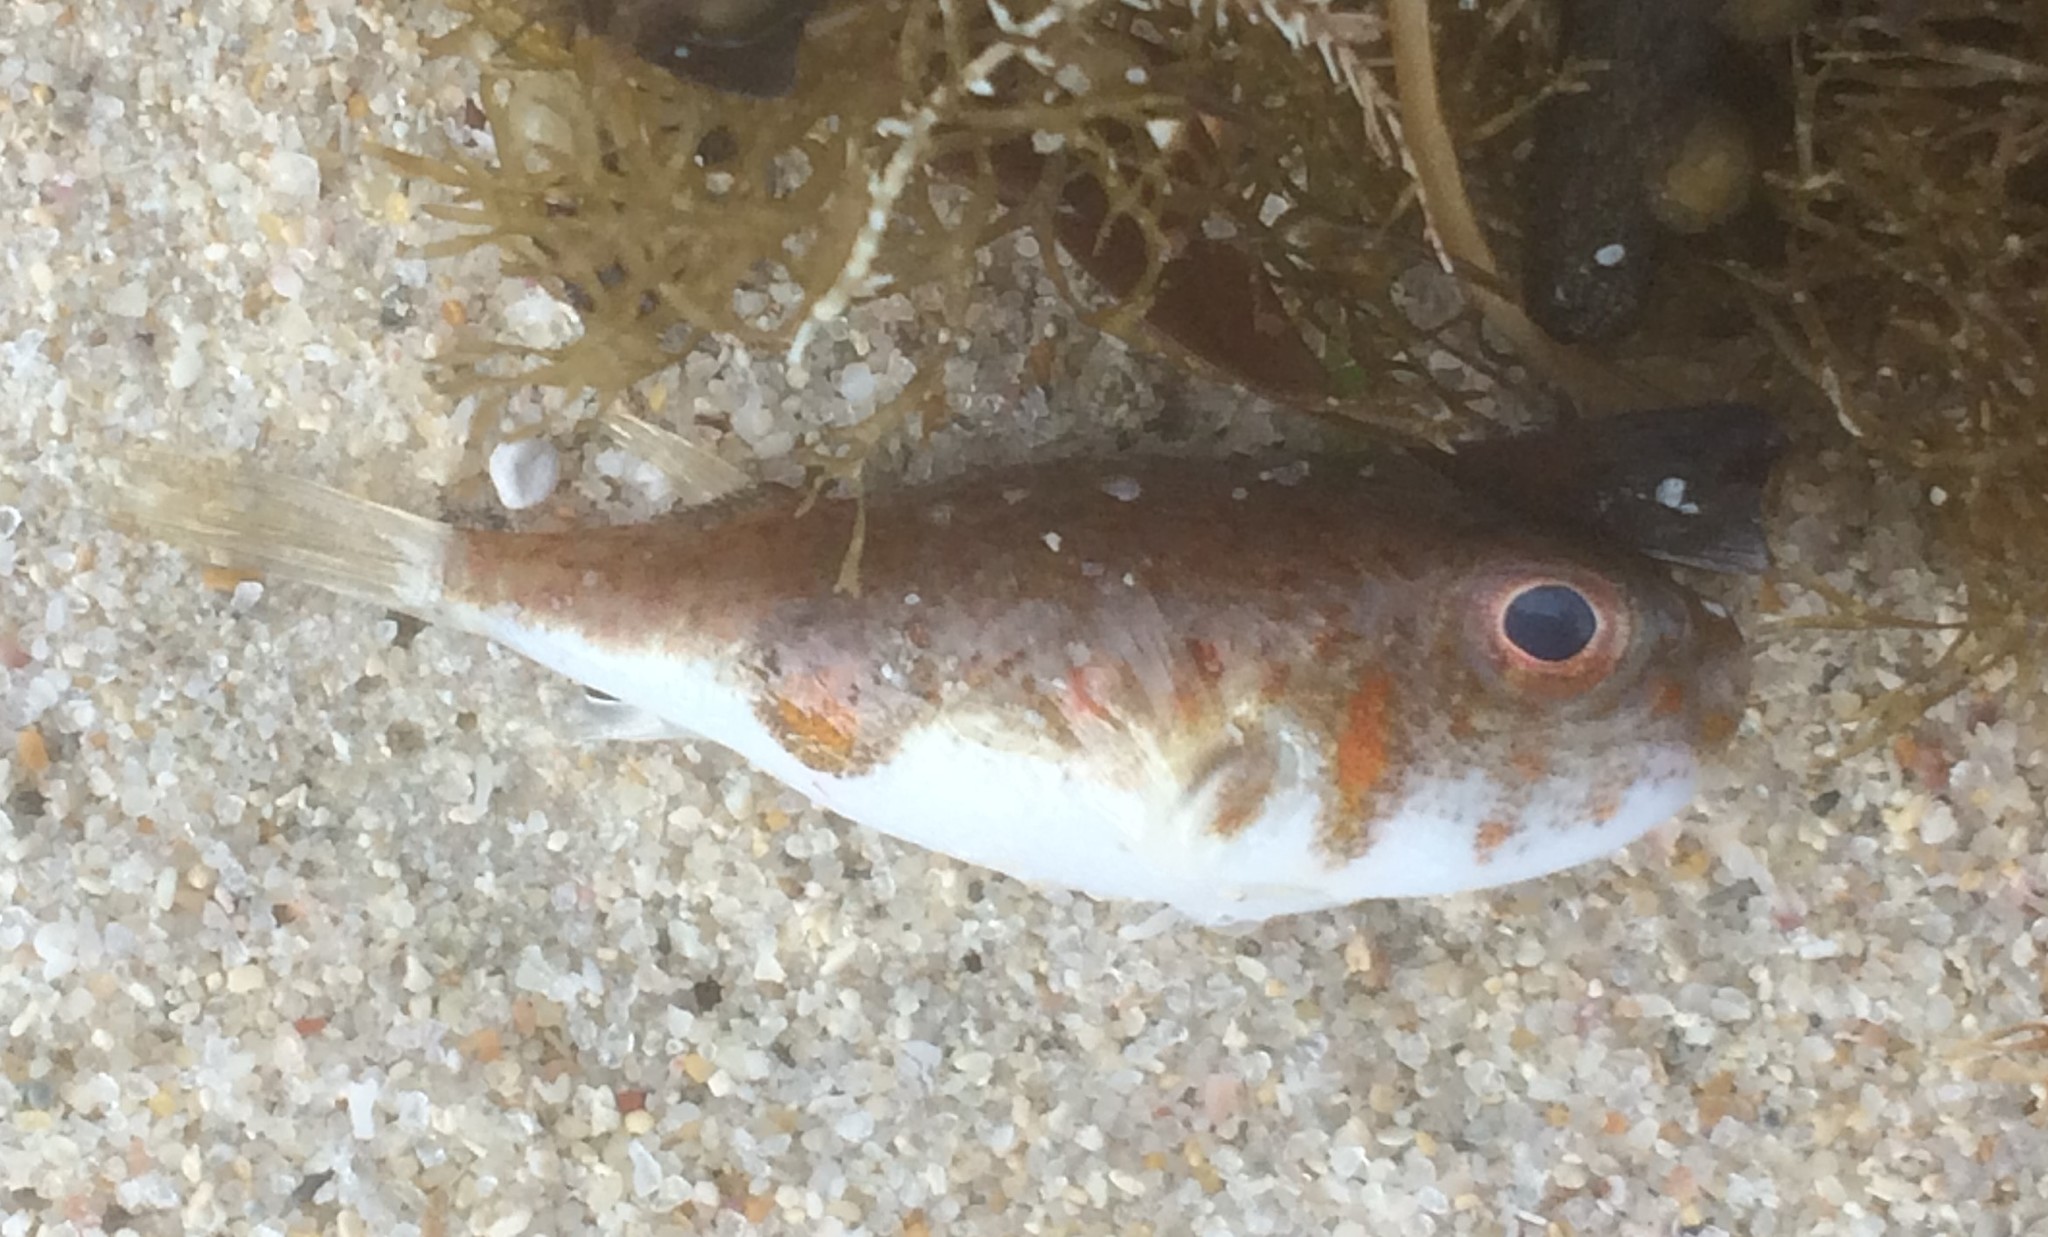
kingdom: Animalia
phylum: Chordata
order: Tetraodontiformes
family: Tetraodontidae
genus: Polyspina
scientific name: Polyspina piosae
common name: Orange-barred pufferfish
